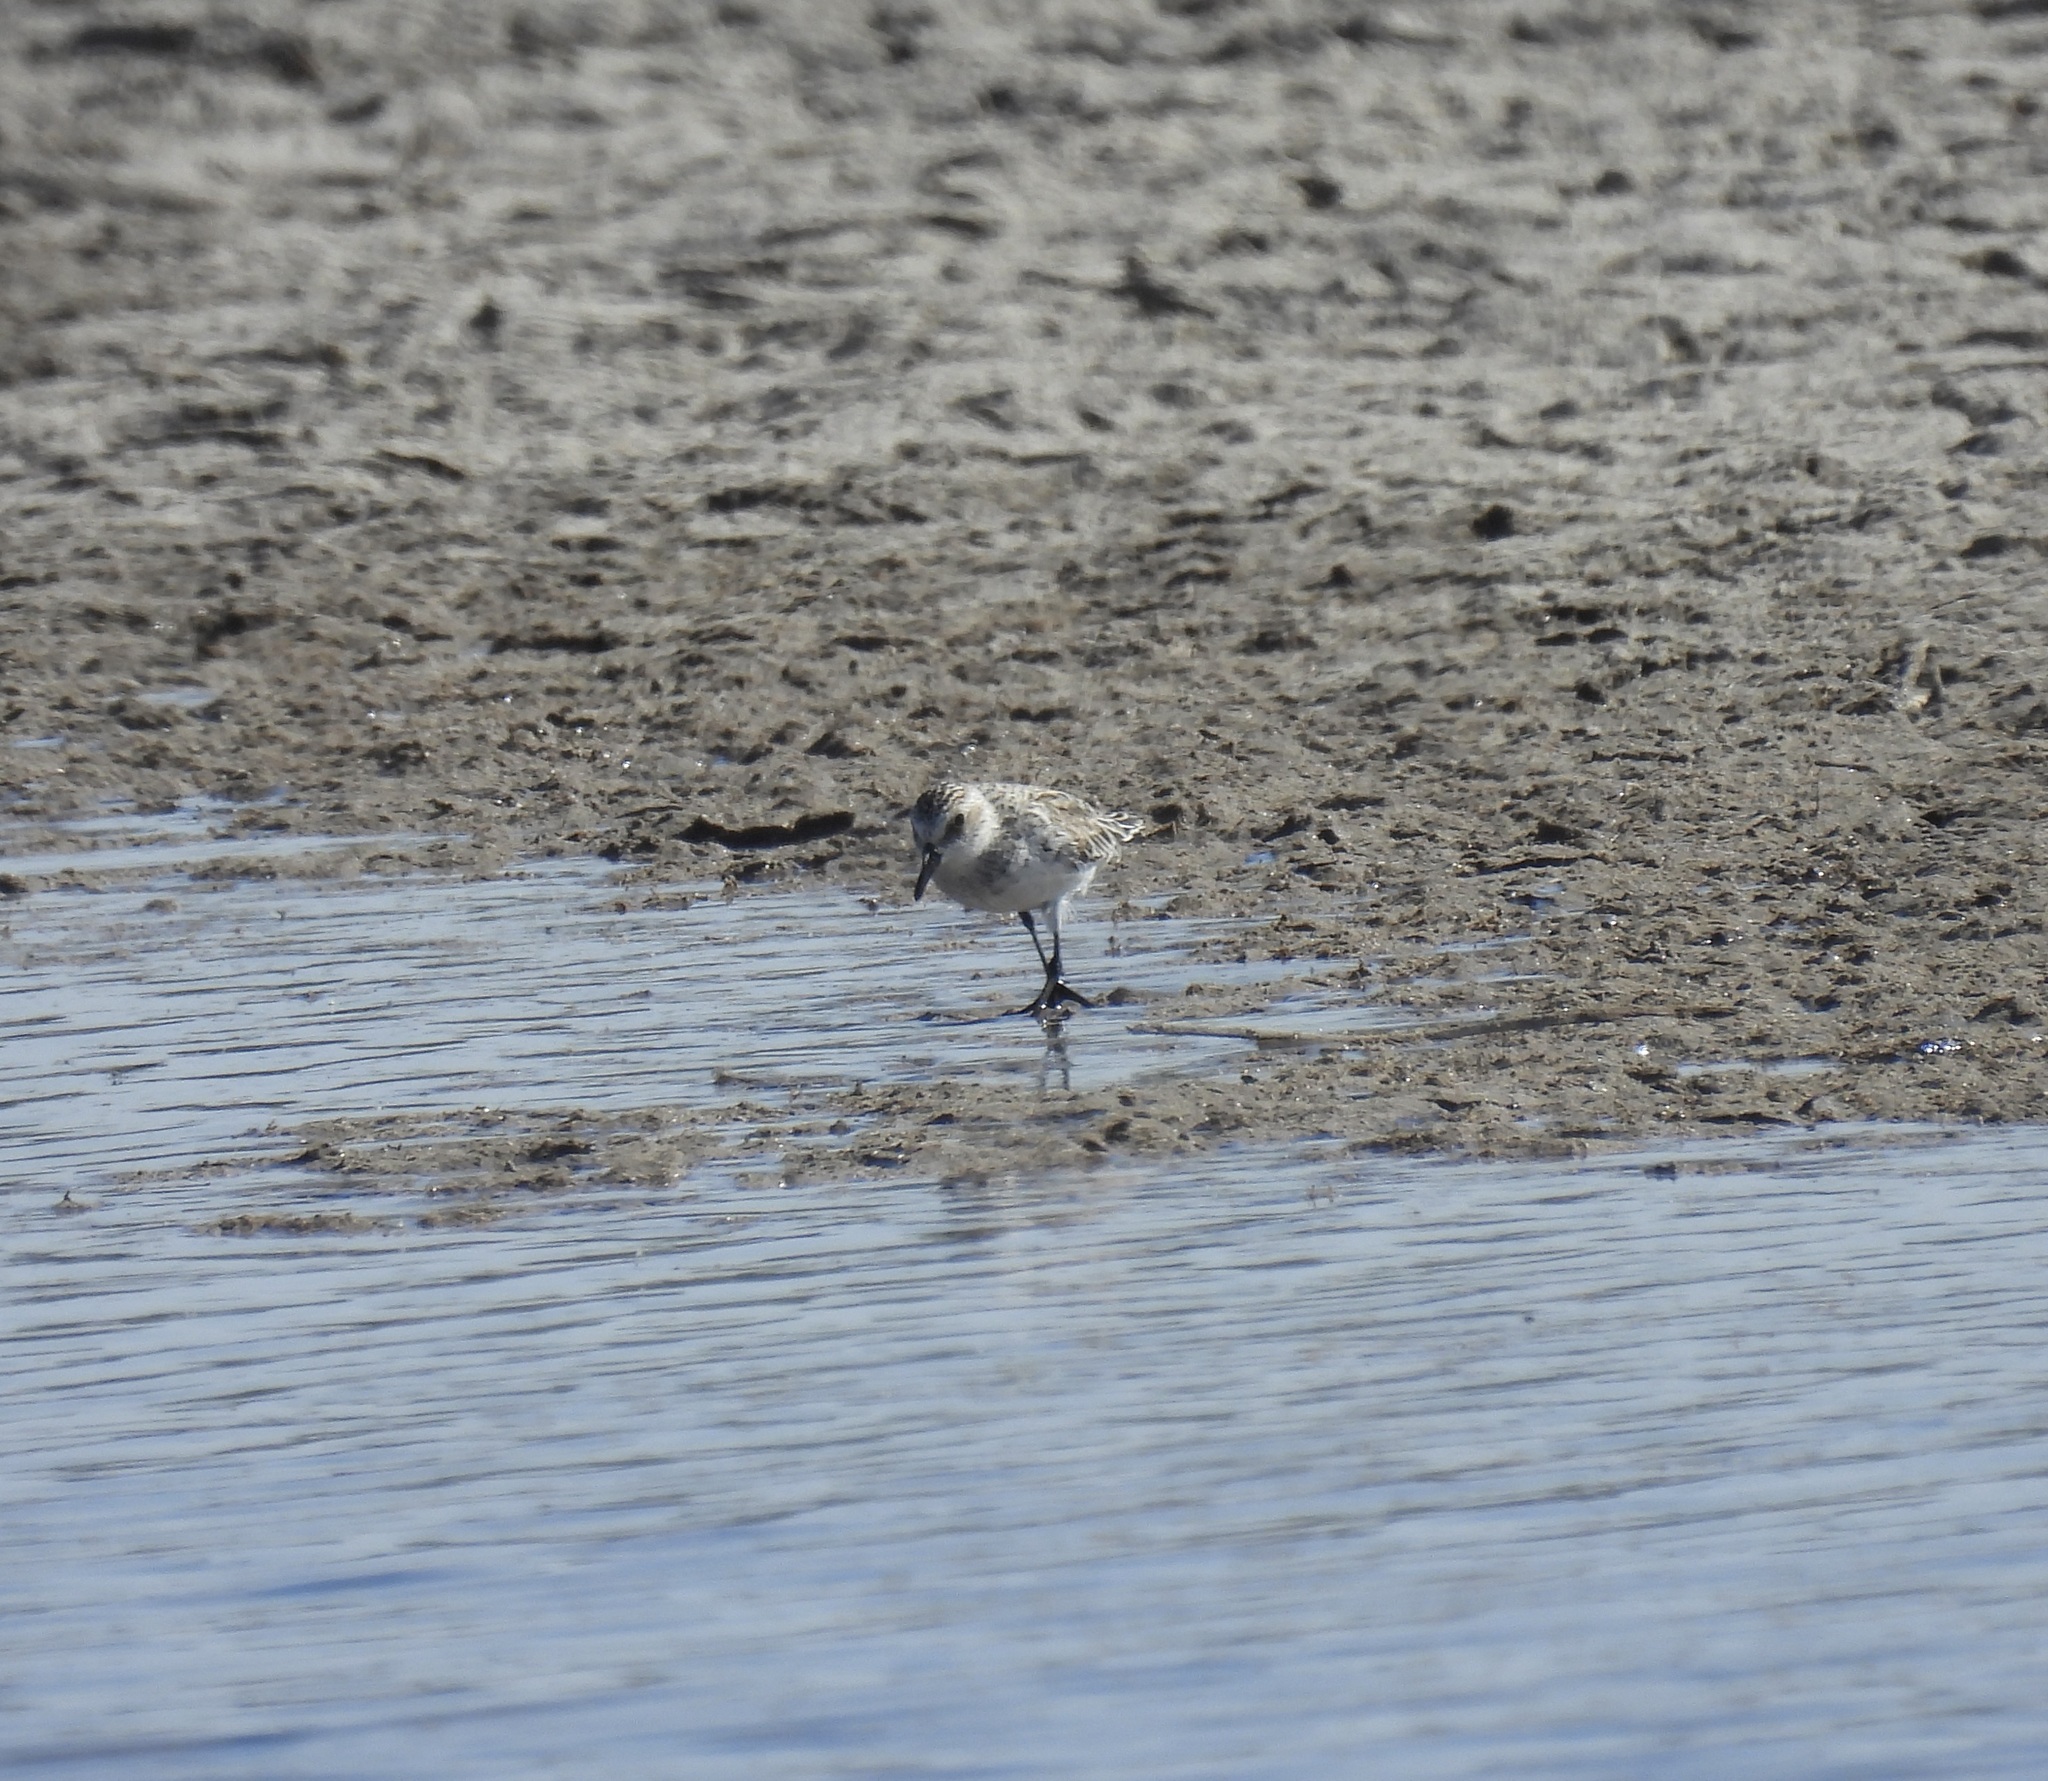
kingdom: Animalia
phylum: Chordata
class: Aves
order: Charadriiformes
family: Scolopacidae
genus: Calidris
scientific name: Calidris pusilla
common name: Semipalmated sandpiper
